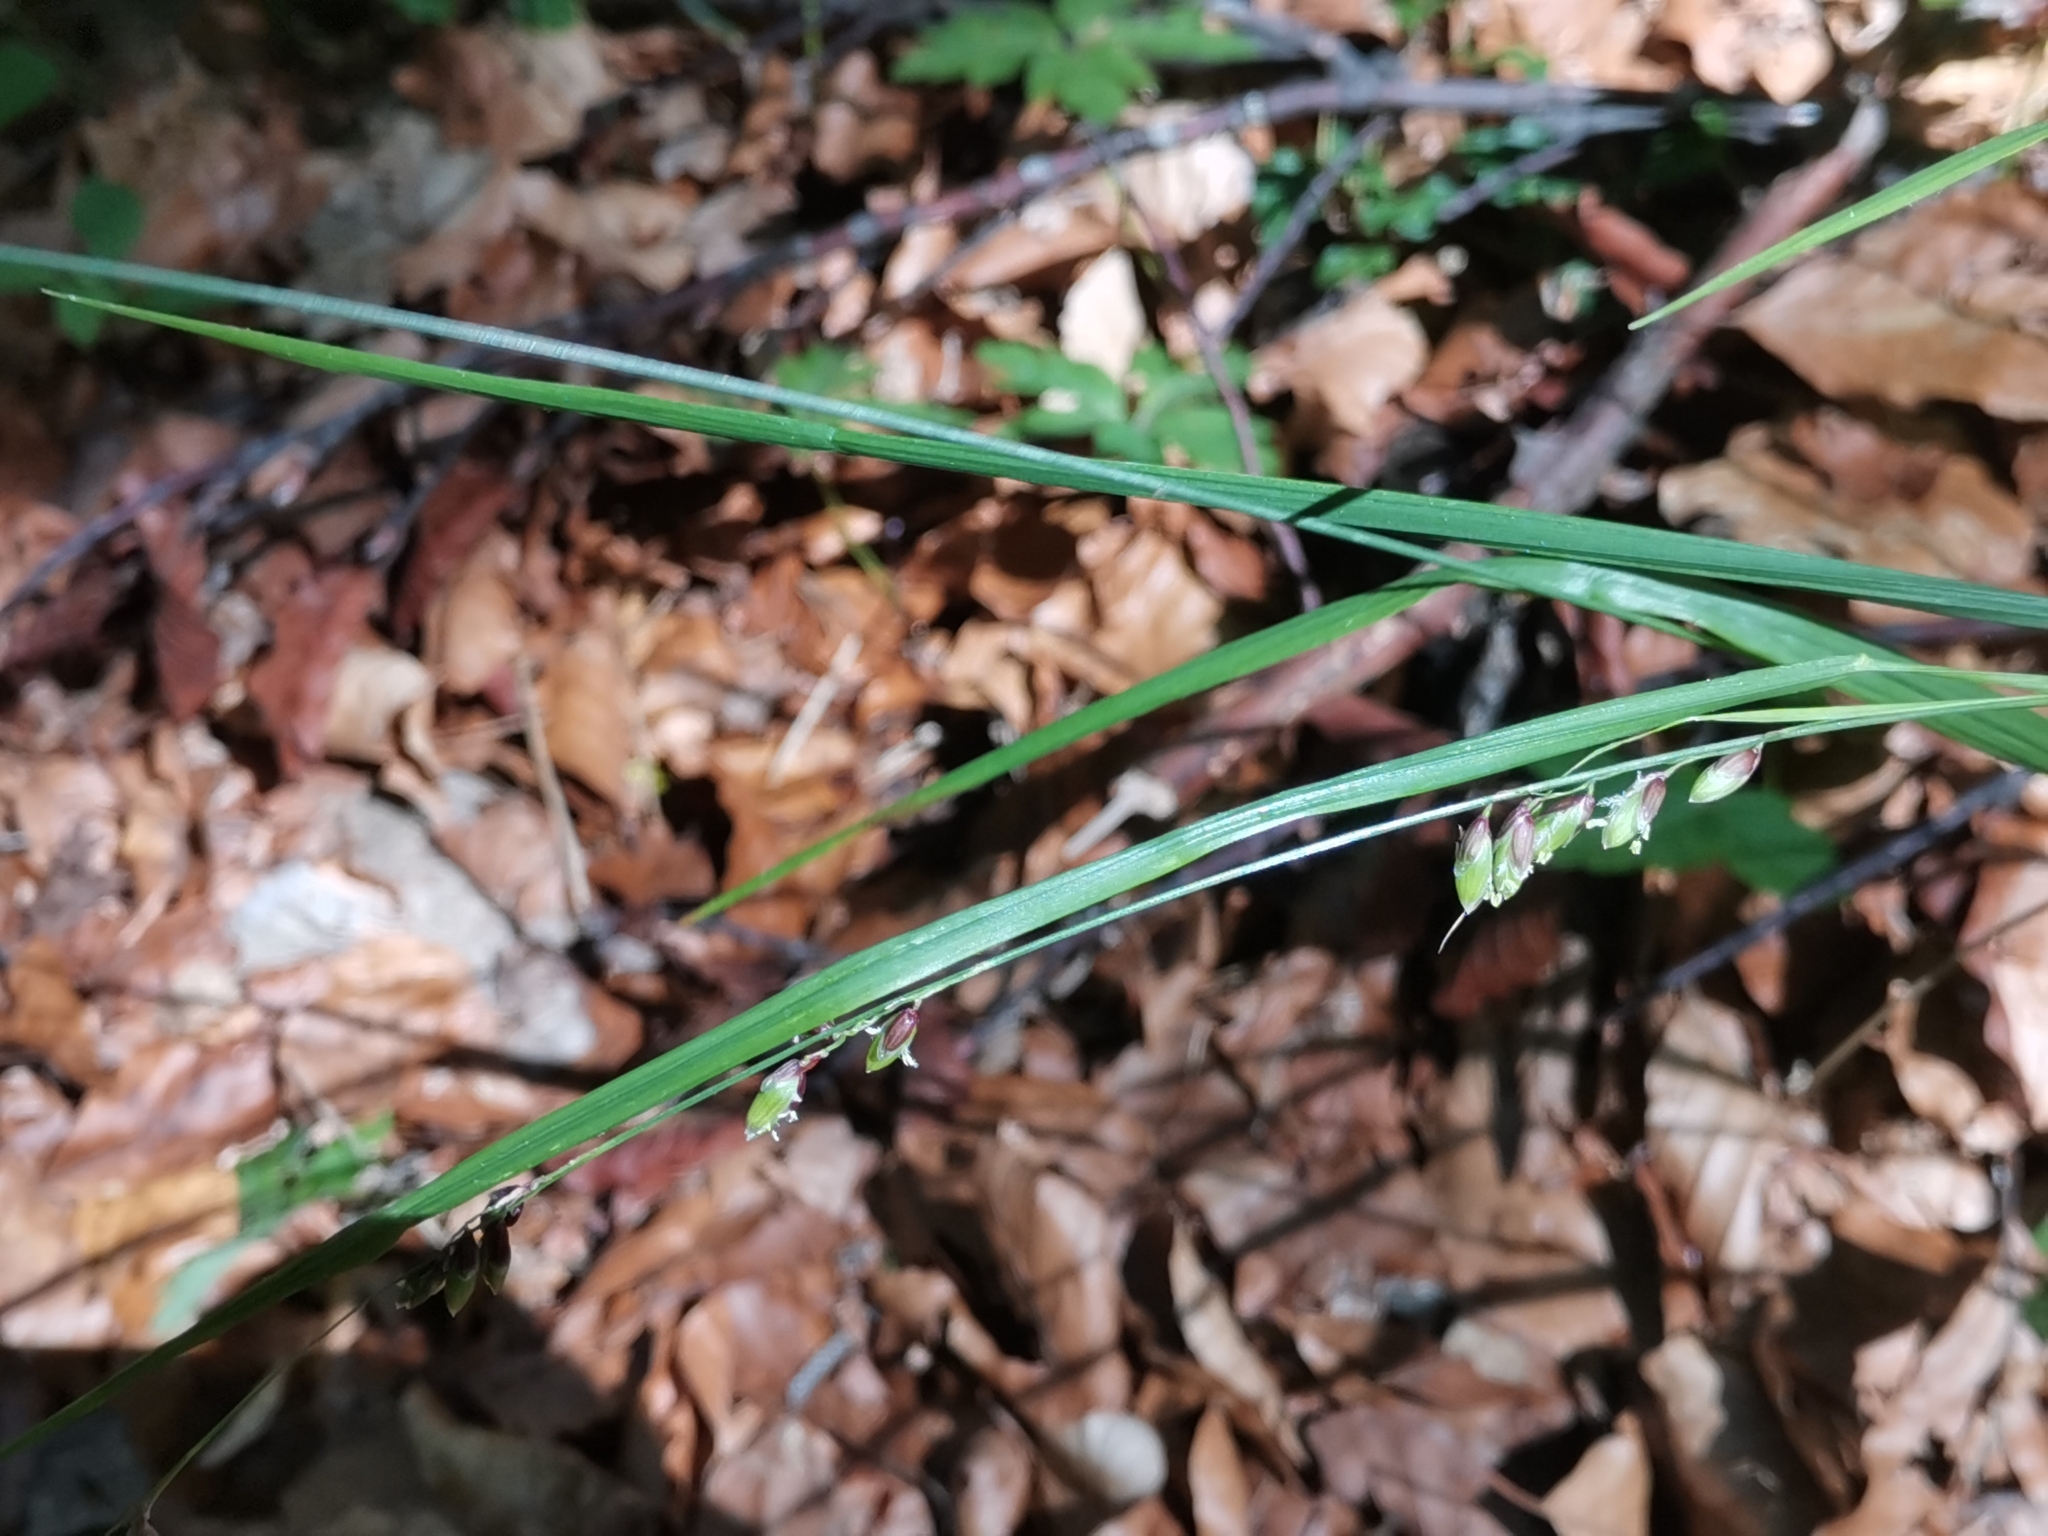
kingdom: Plantae
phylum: Tracheophyta
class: Liliopsida
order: Poales
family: Poaceae
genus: Melica
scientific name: Melica nutans
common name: Mountain melick
